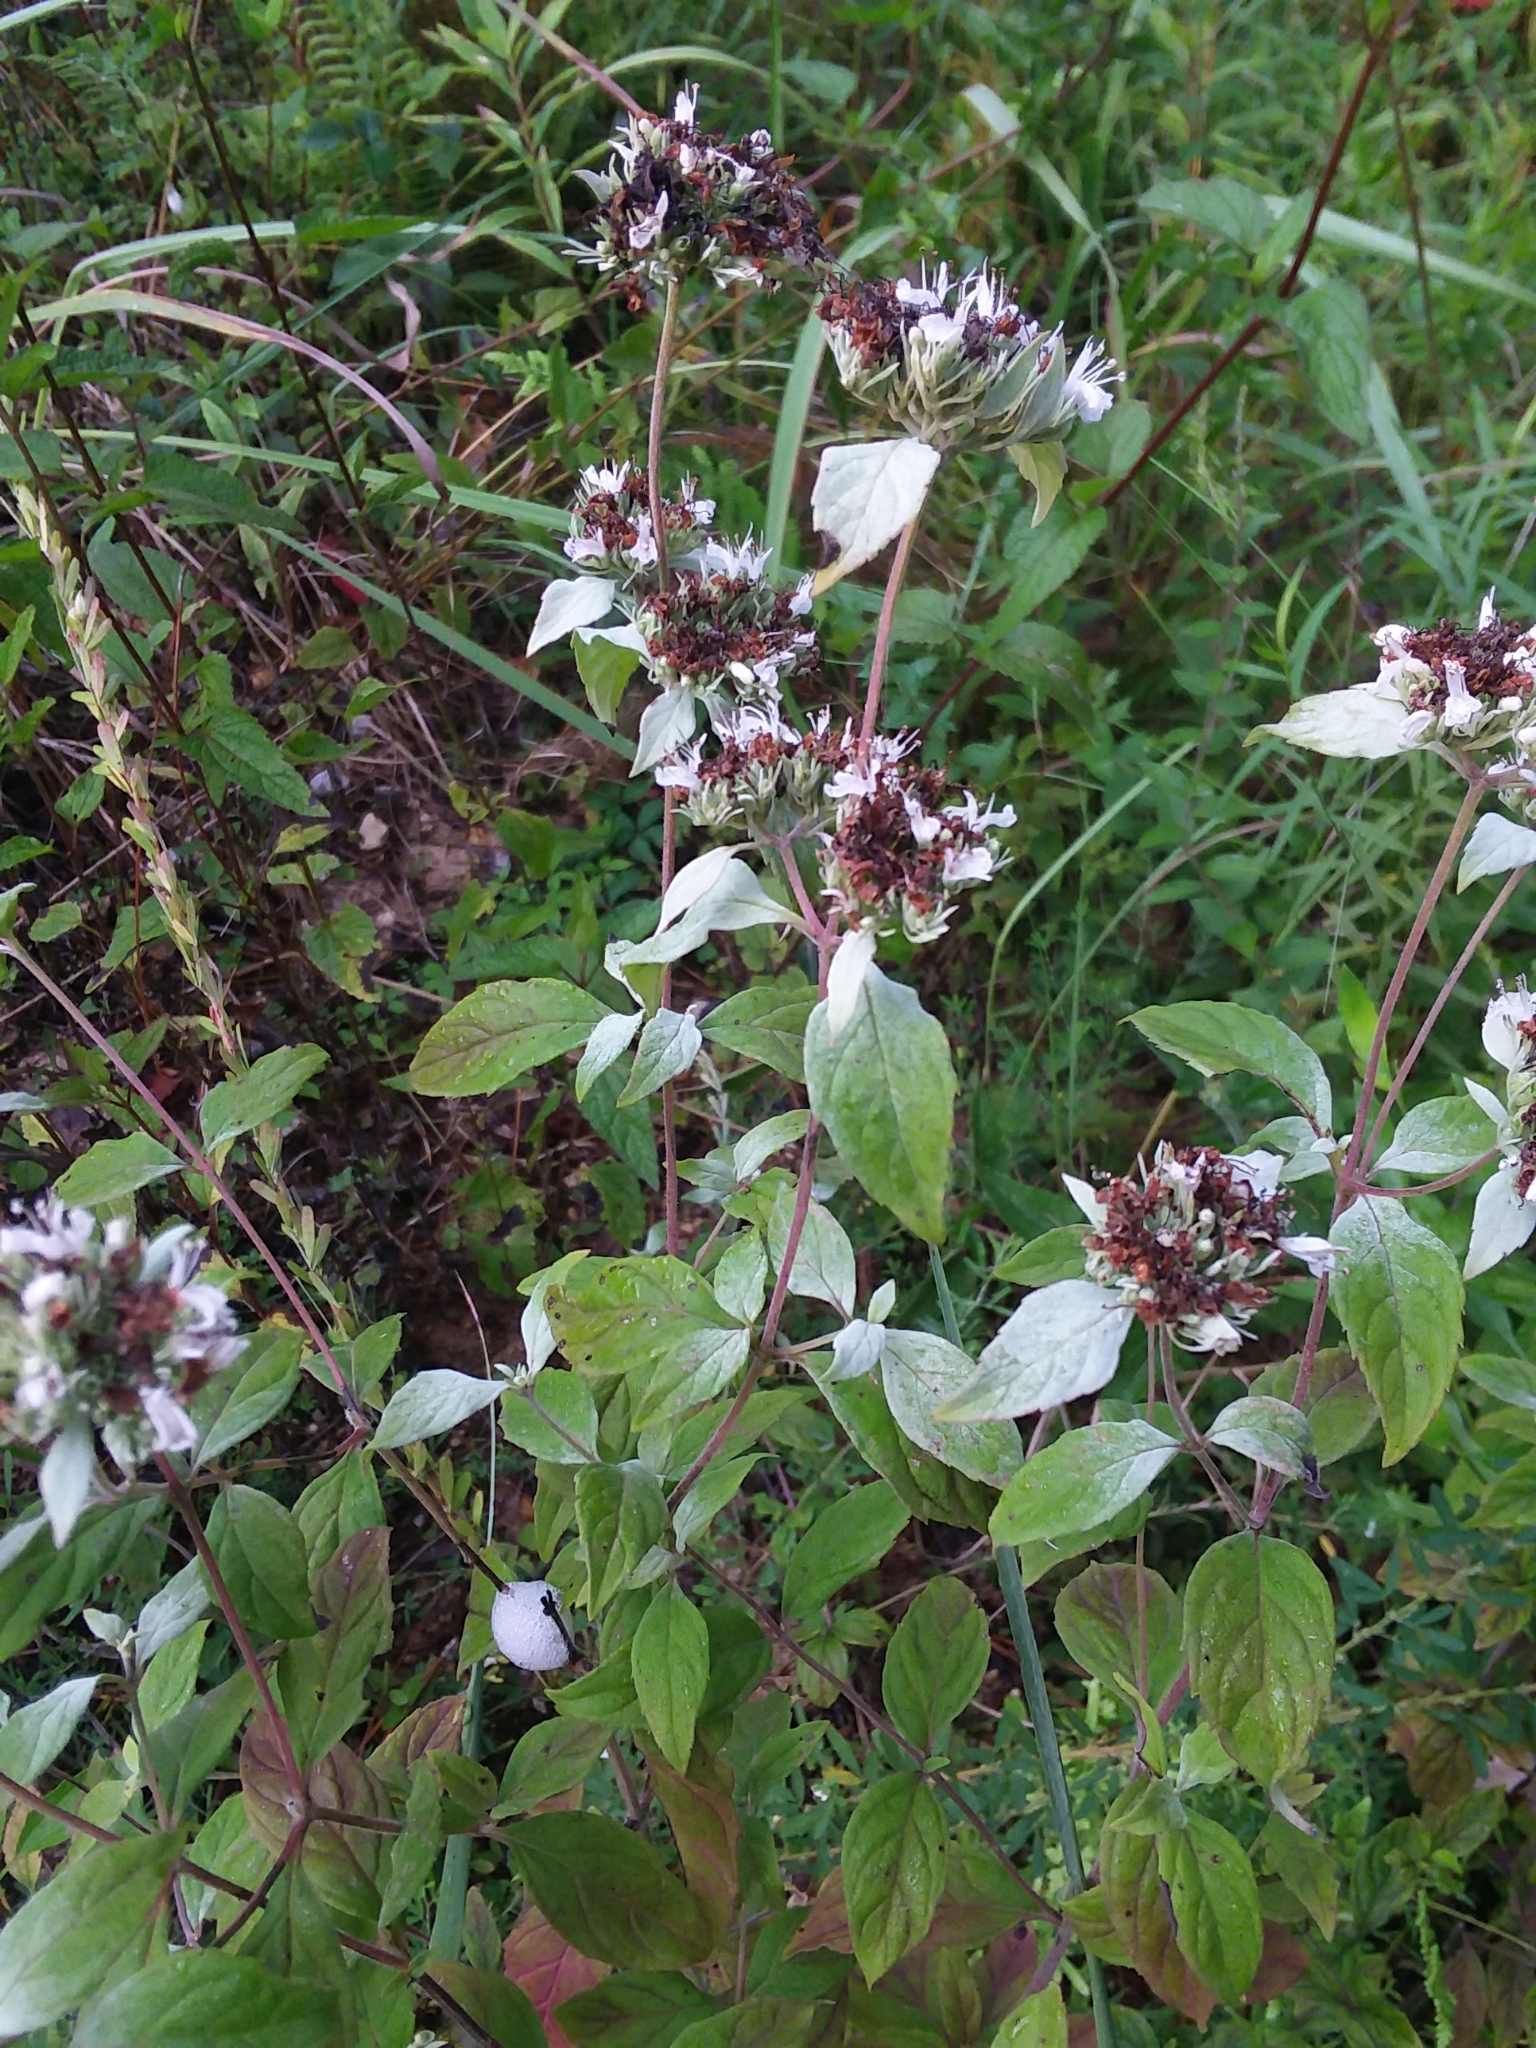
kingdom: Plantae
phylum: Tracheophyta
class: Magnoliopsida
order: Lamiales
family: Lamiaceae
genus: Pycnanthemum
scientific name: Pycnanthemum albescens
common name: White-leaf mountain-mint
